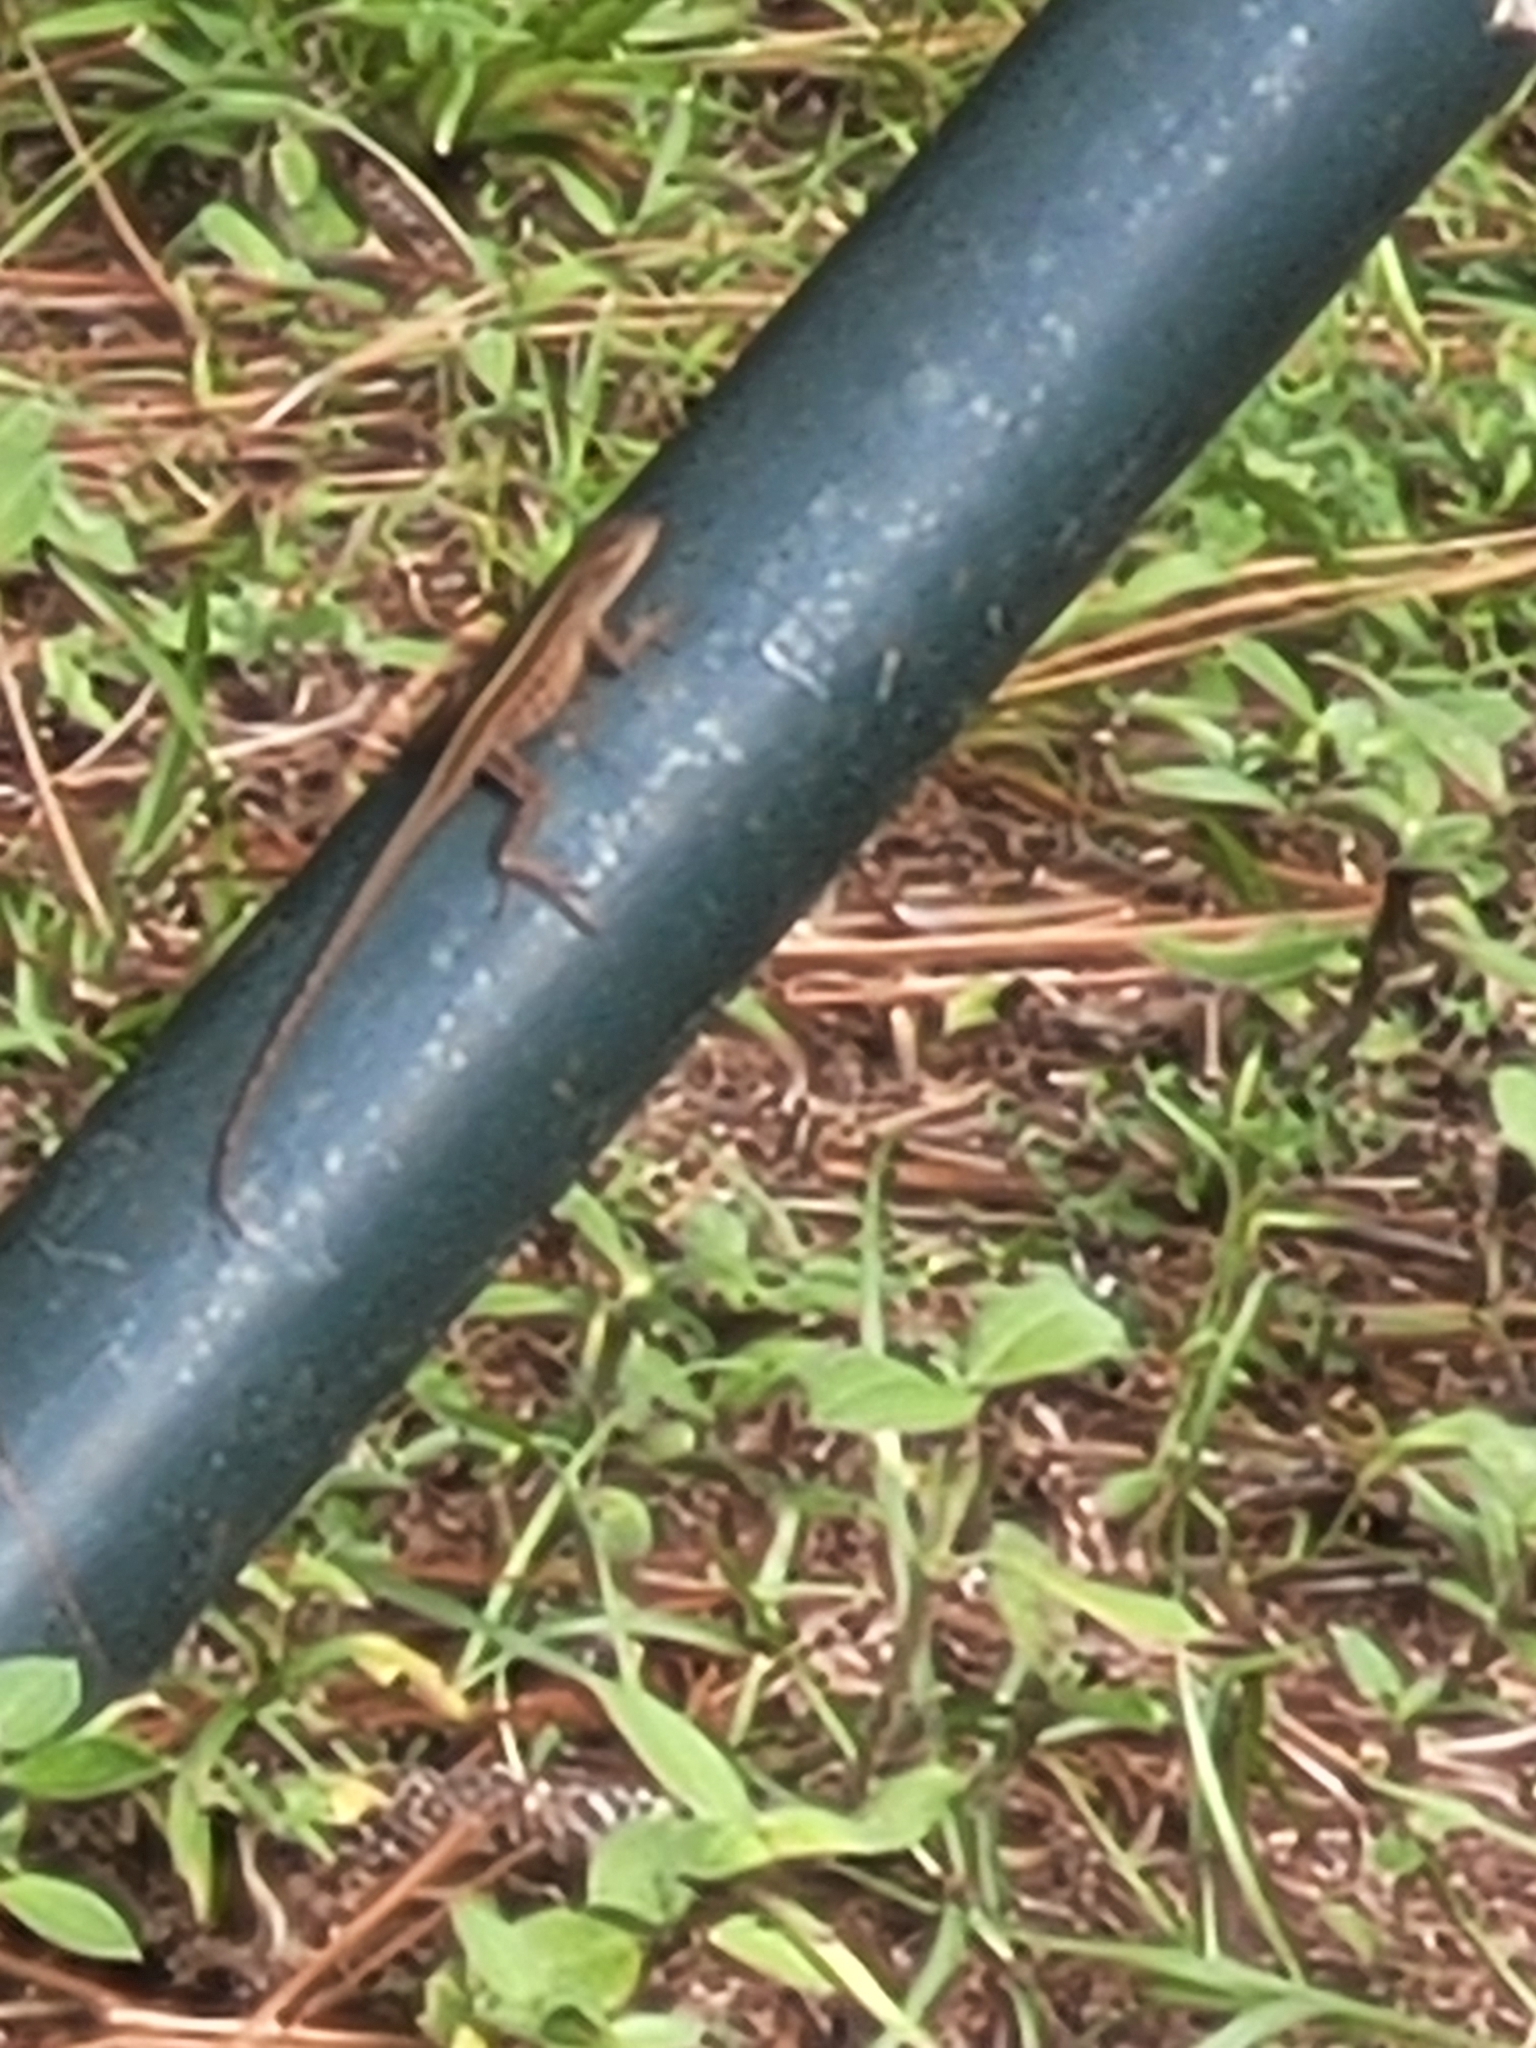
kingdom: Animalia
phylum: Chordata
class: Squamata
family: Dactyloidae
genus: Anolis
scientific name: Anolis sagrei
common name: Brown anole
